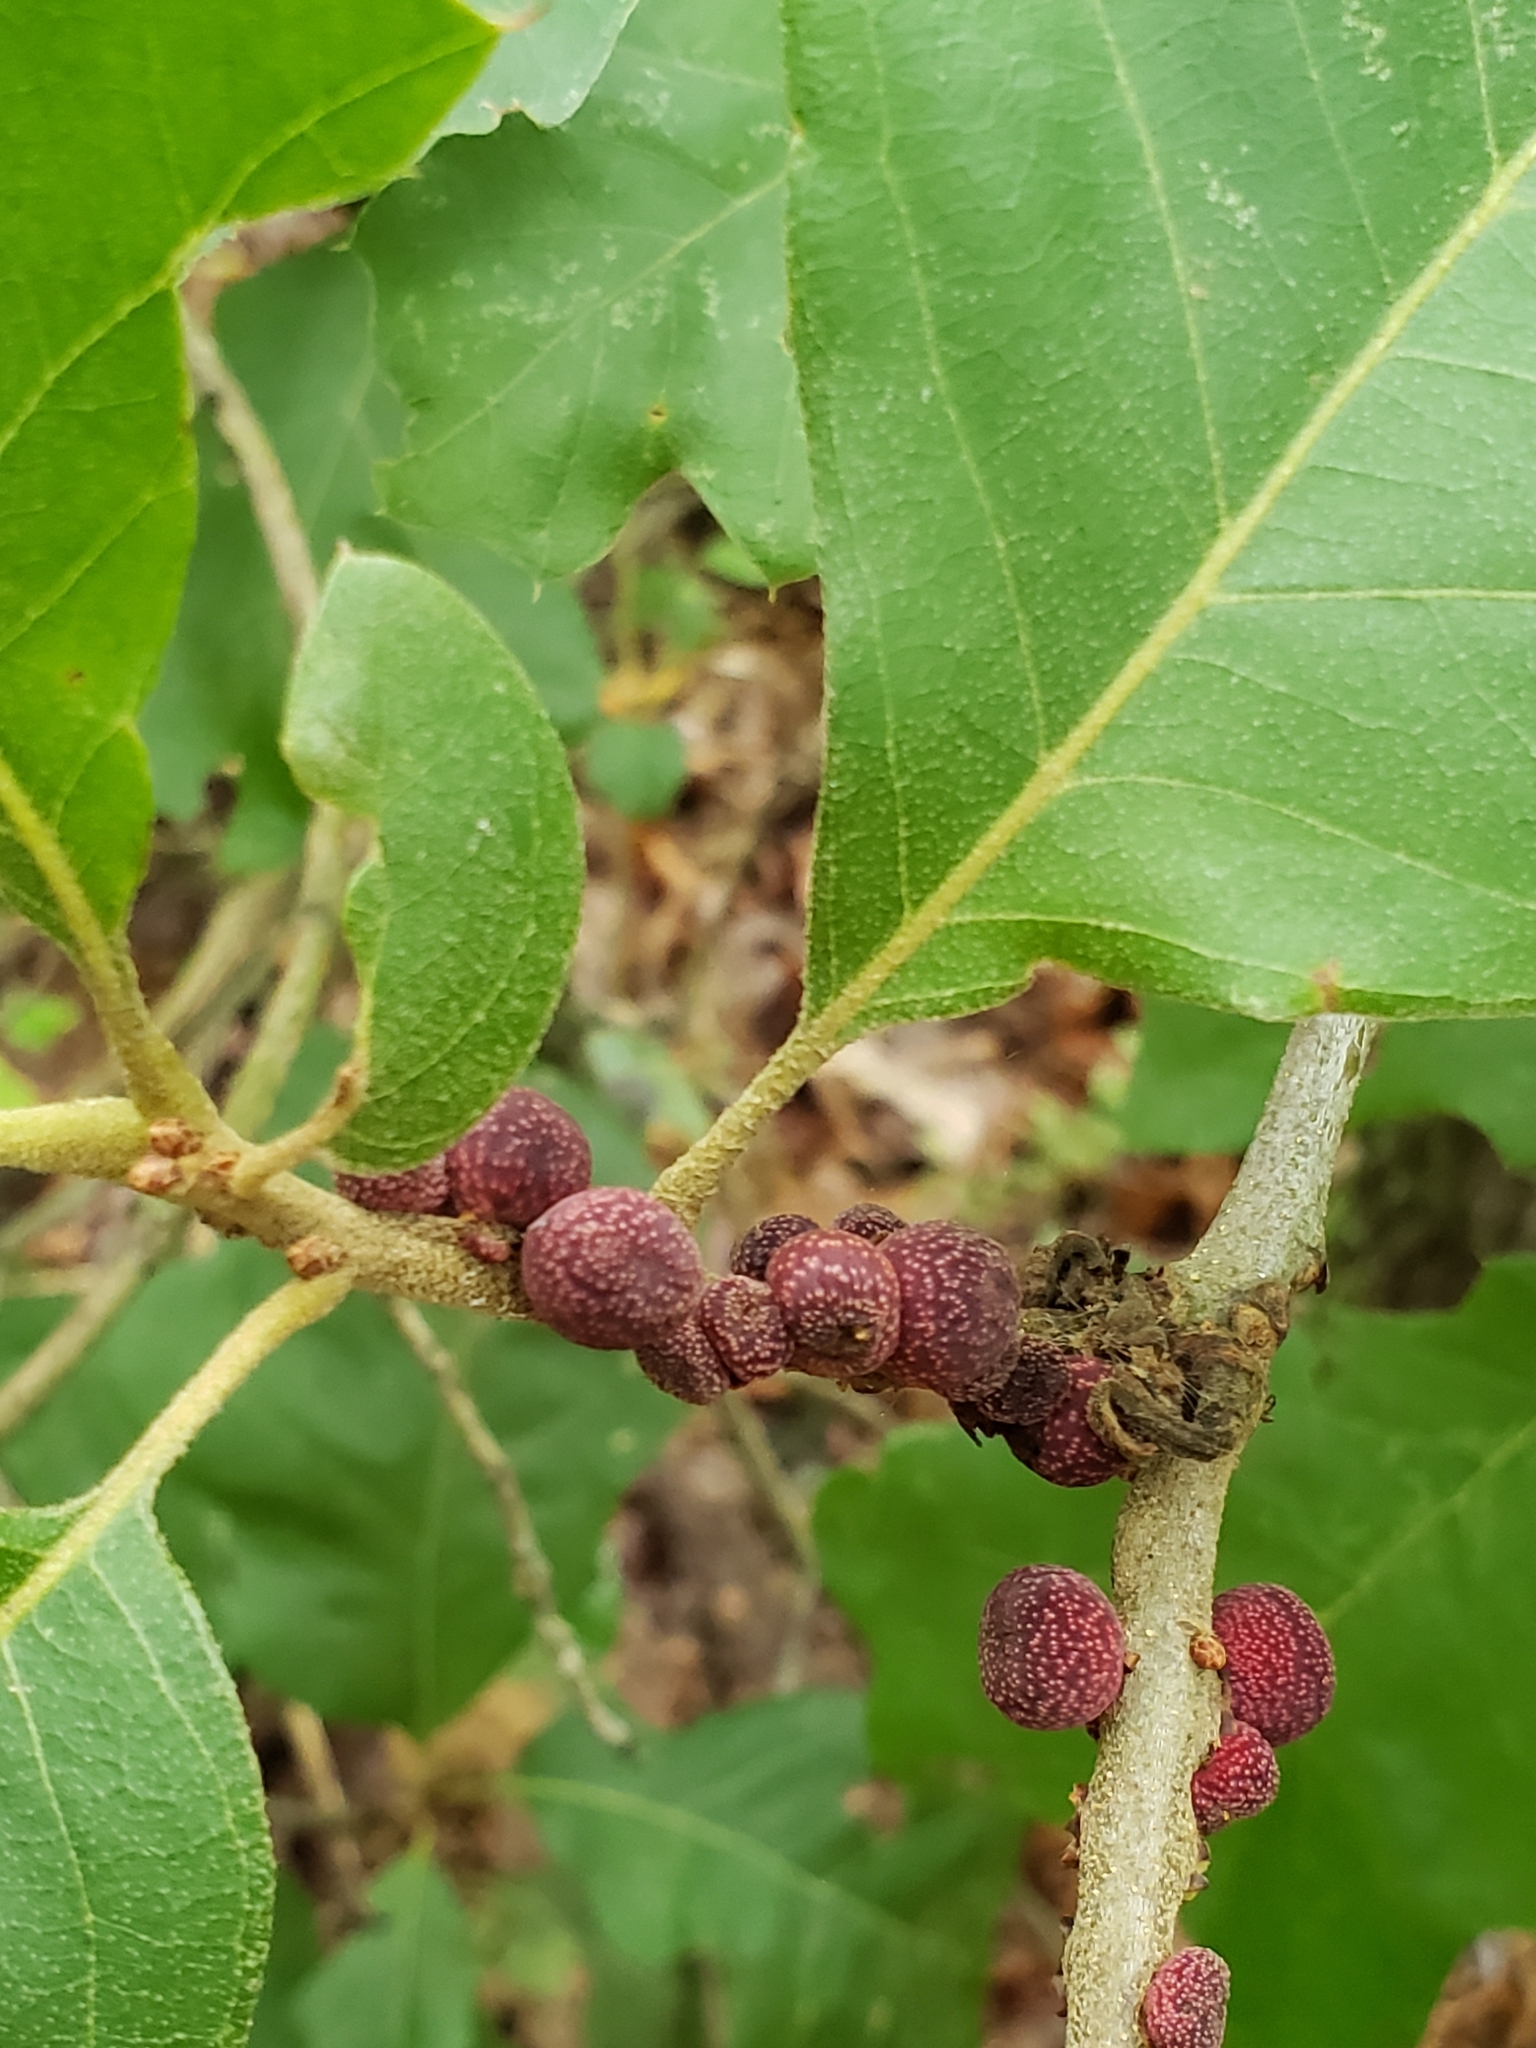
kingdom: Animalia
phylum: Arthropoda
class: Insecta
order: Hymenoptera
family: Cynipidae
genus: Kokkocynips
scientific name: Kokkocynips imbricariae
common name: Banded bullet gall wasp
